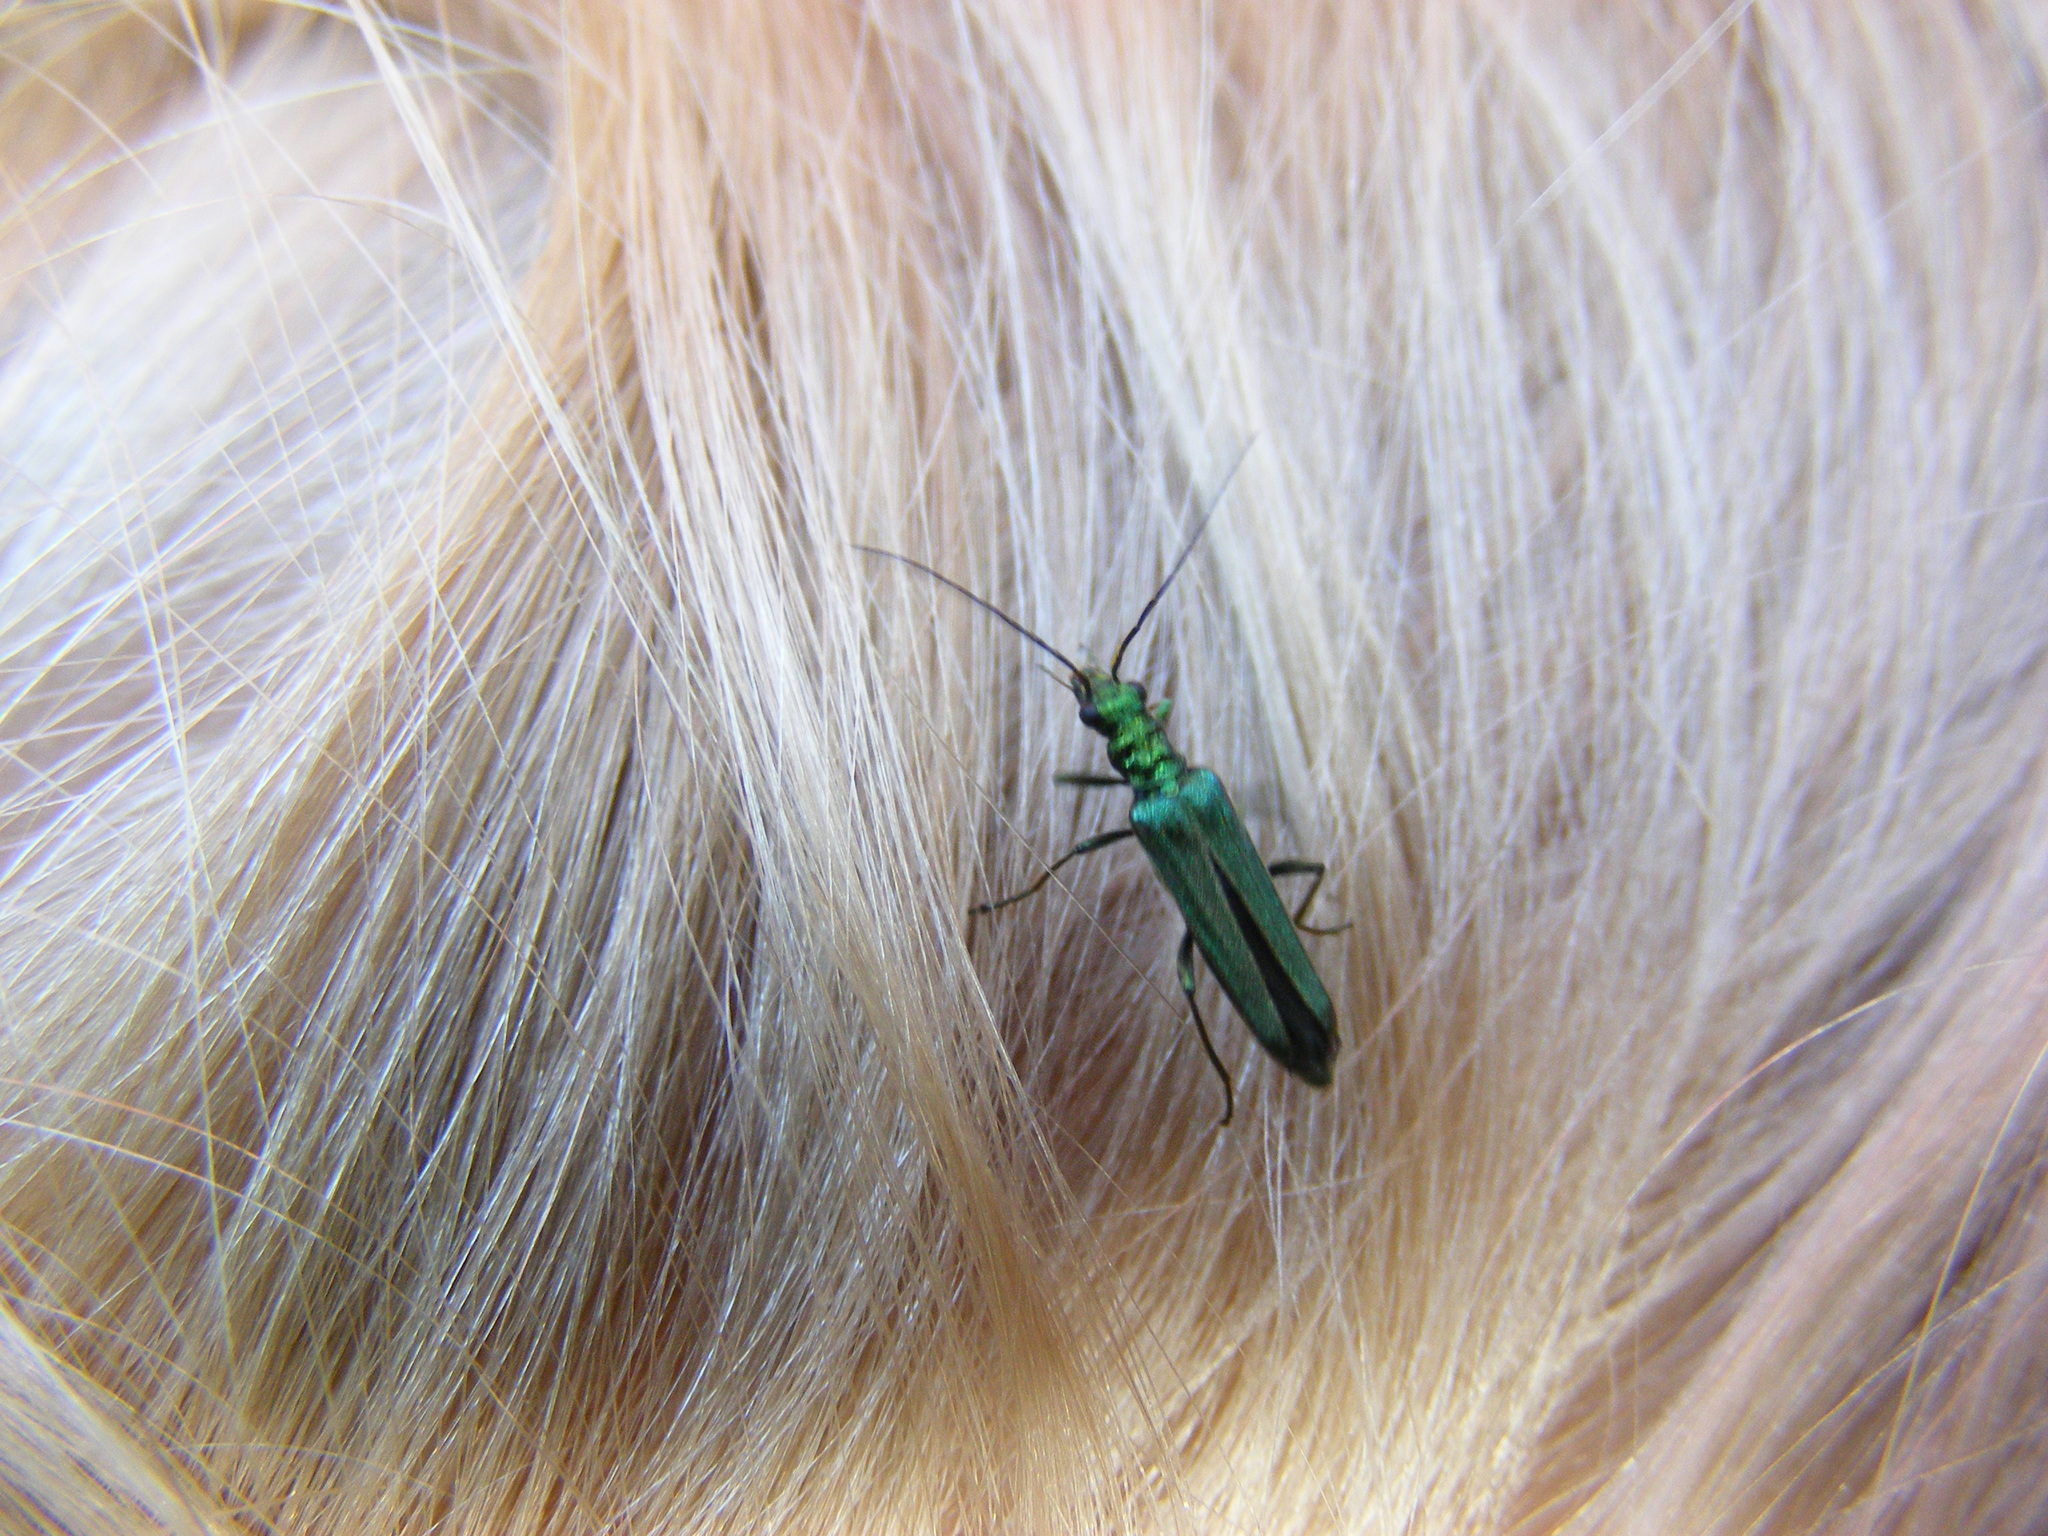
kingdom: Animalia
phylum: Arthropoda
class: Insecta
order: Coleoptera
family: Oedemeridae
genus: Oedemera
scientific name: Oedemera nobilis
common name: Swollen-thighed beetle
